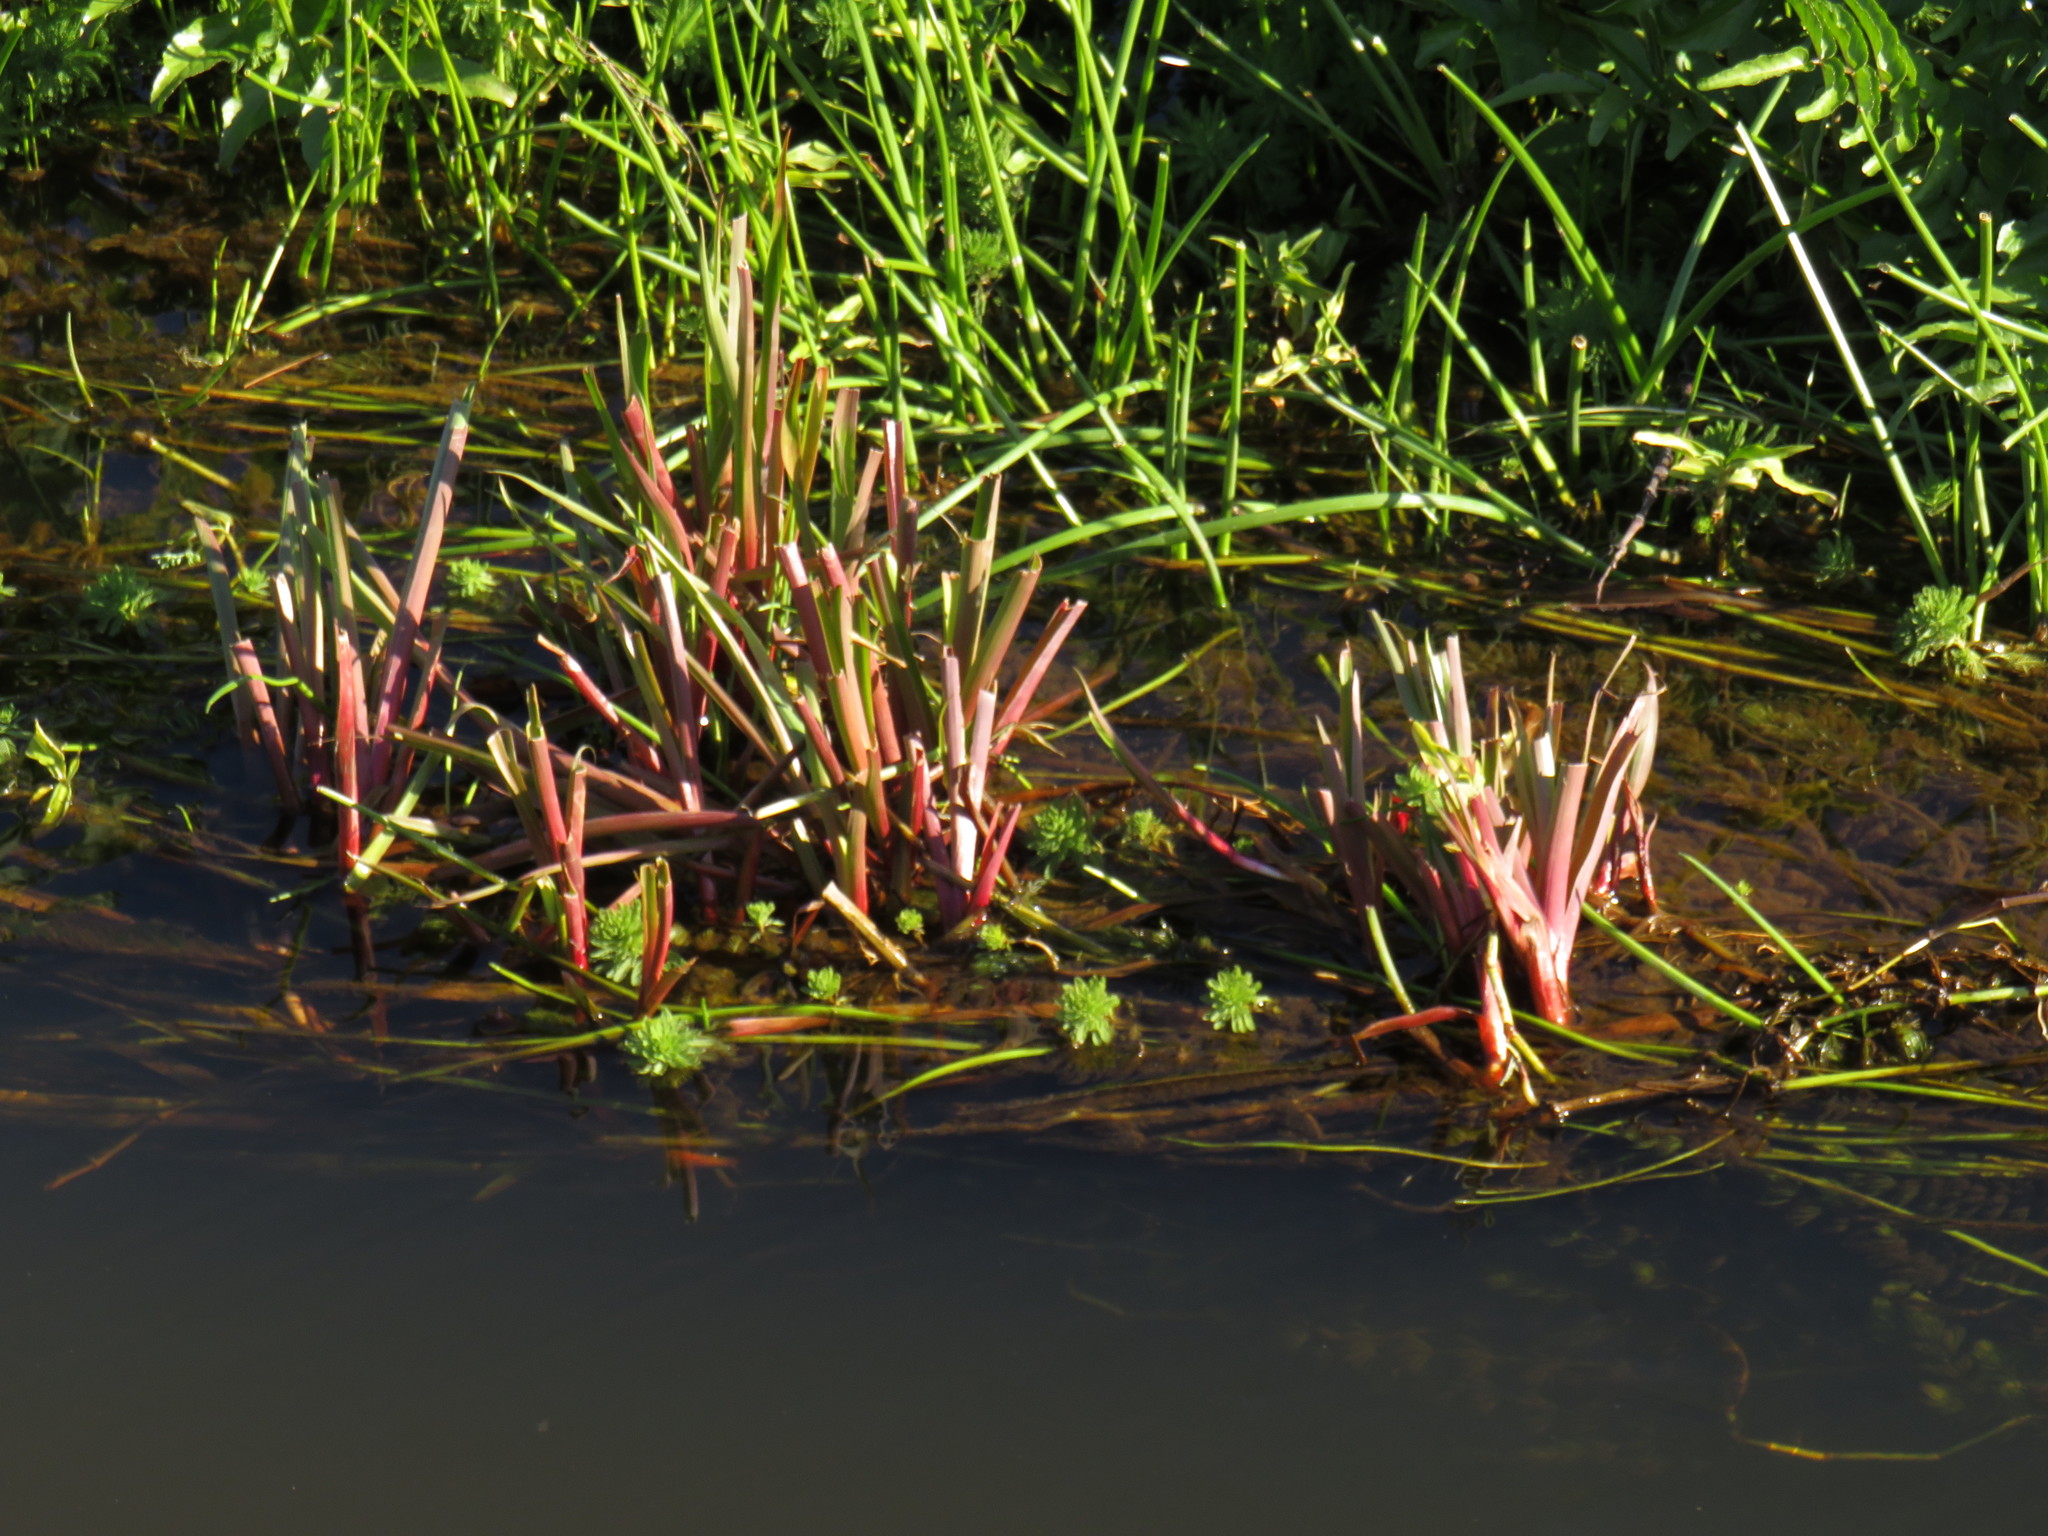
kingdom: Plantae
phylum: Tracheophyta
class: Liliopsida
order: Poales
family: Juncaceae
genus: Juncus
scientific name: Juncus lomatophyllus
